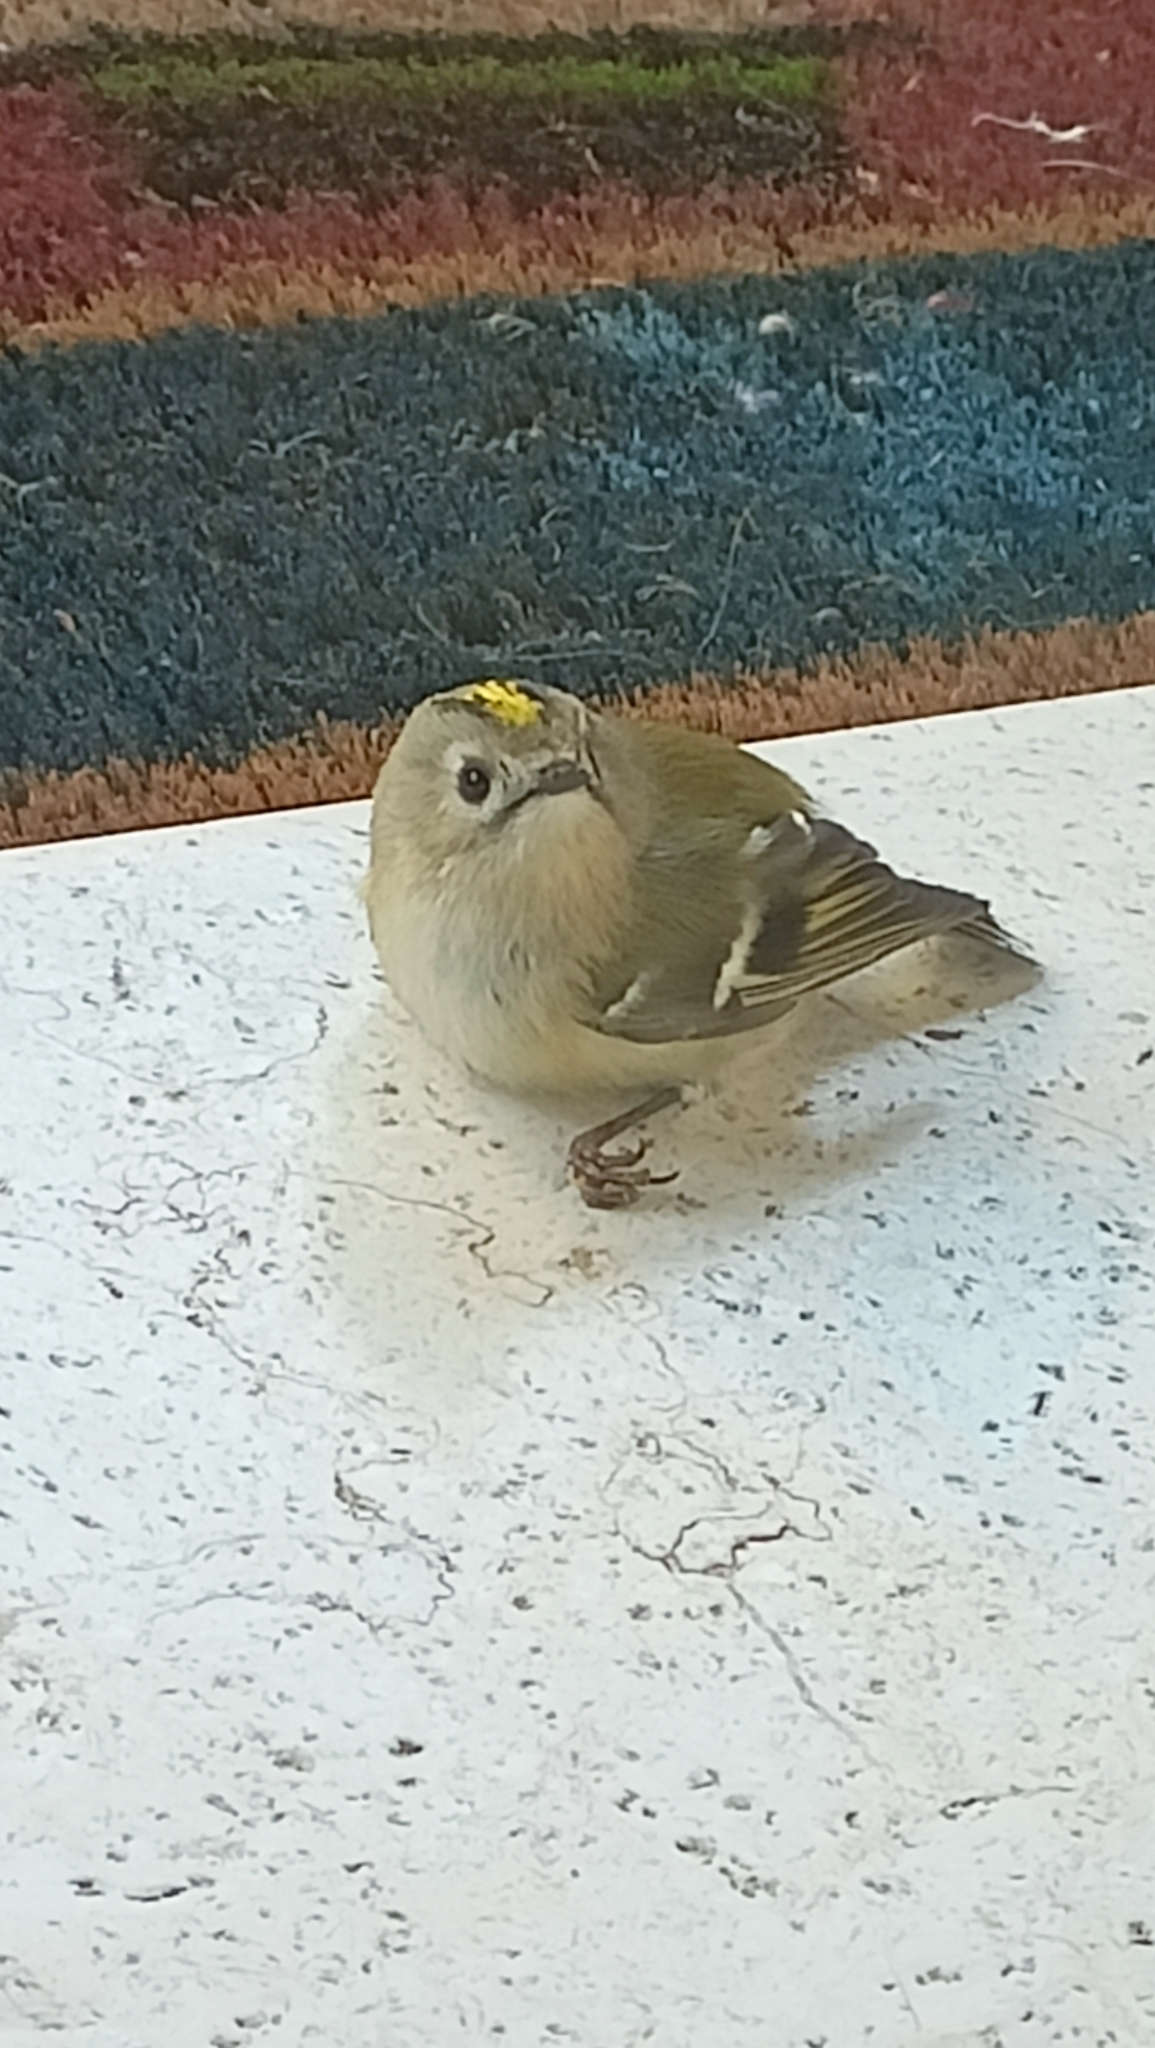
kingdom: Animalia
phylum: Chordata
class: Aves
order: Passeriformes
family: Regulidae
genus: Regulus
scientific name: Regulus regulus
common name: Goldcrest
